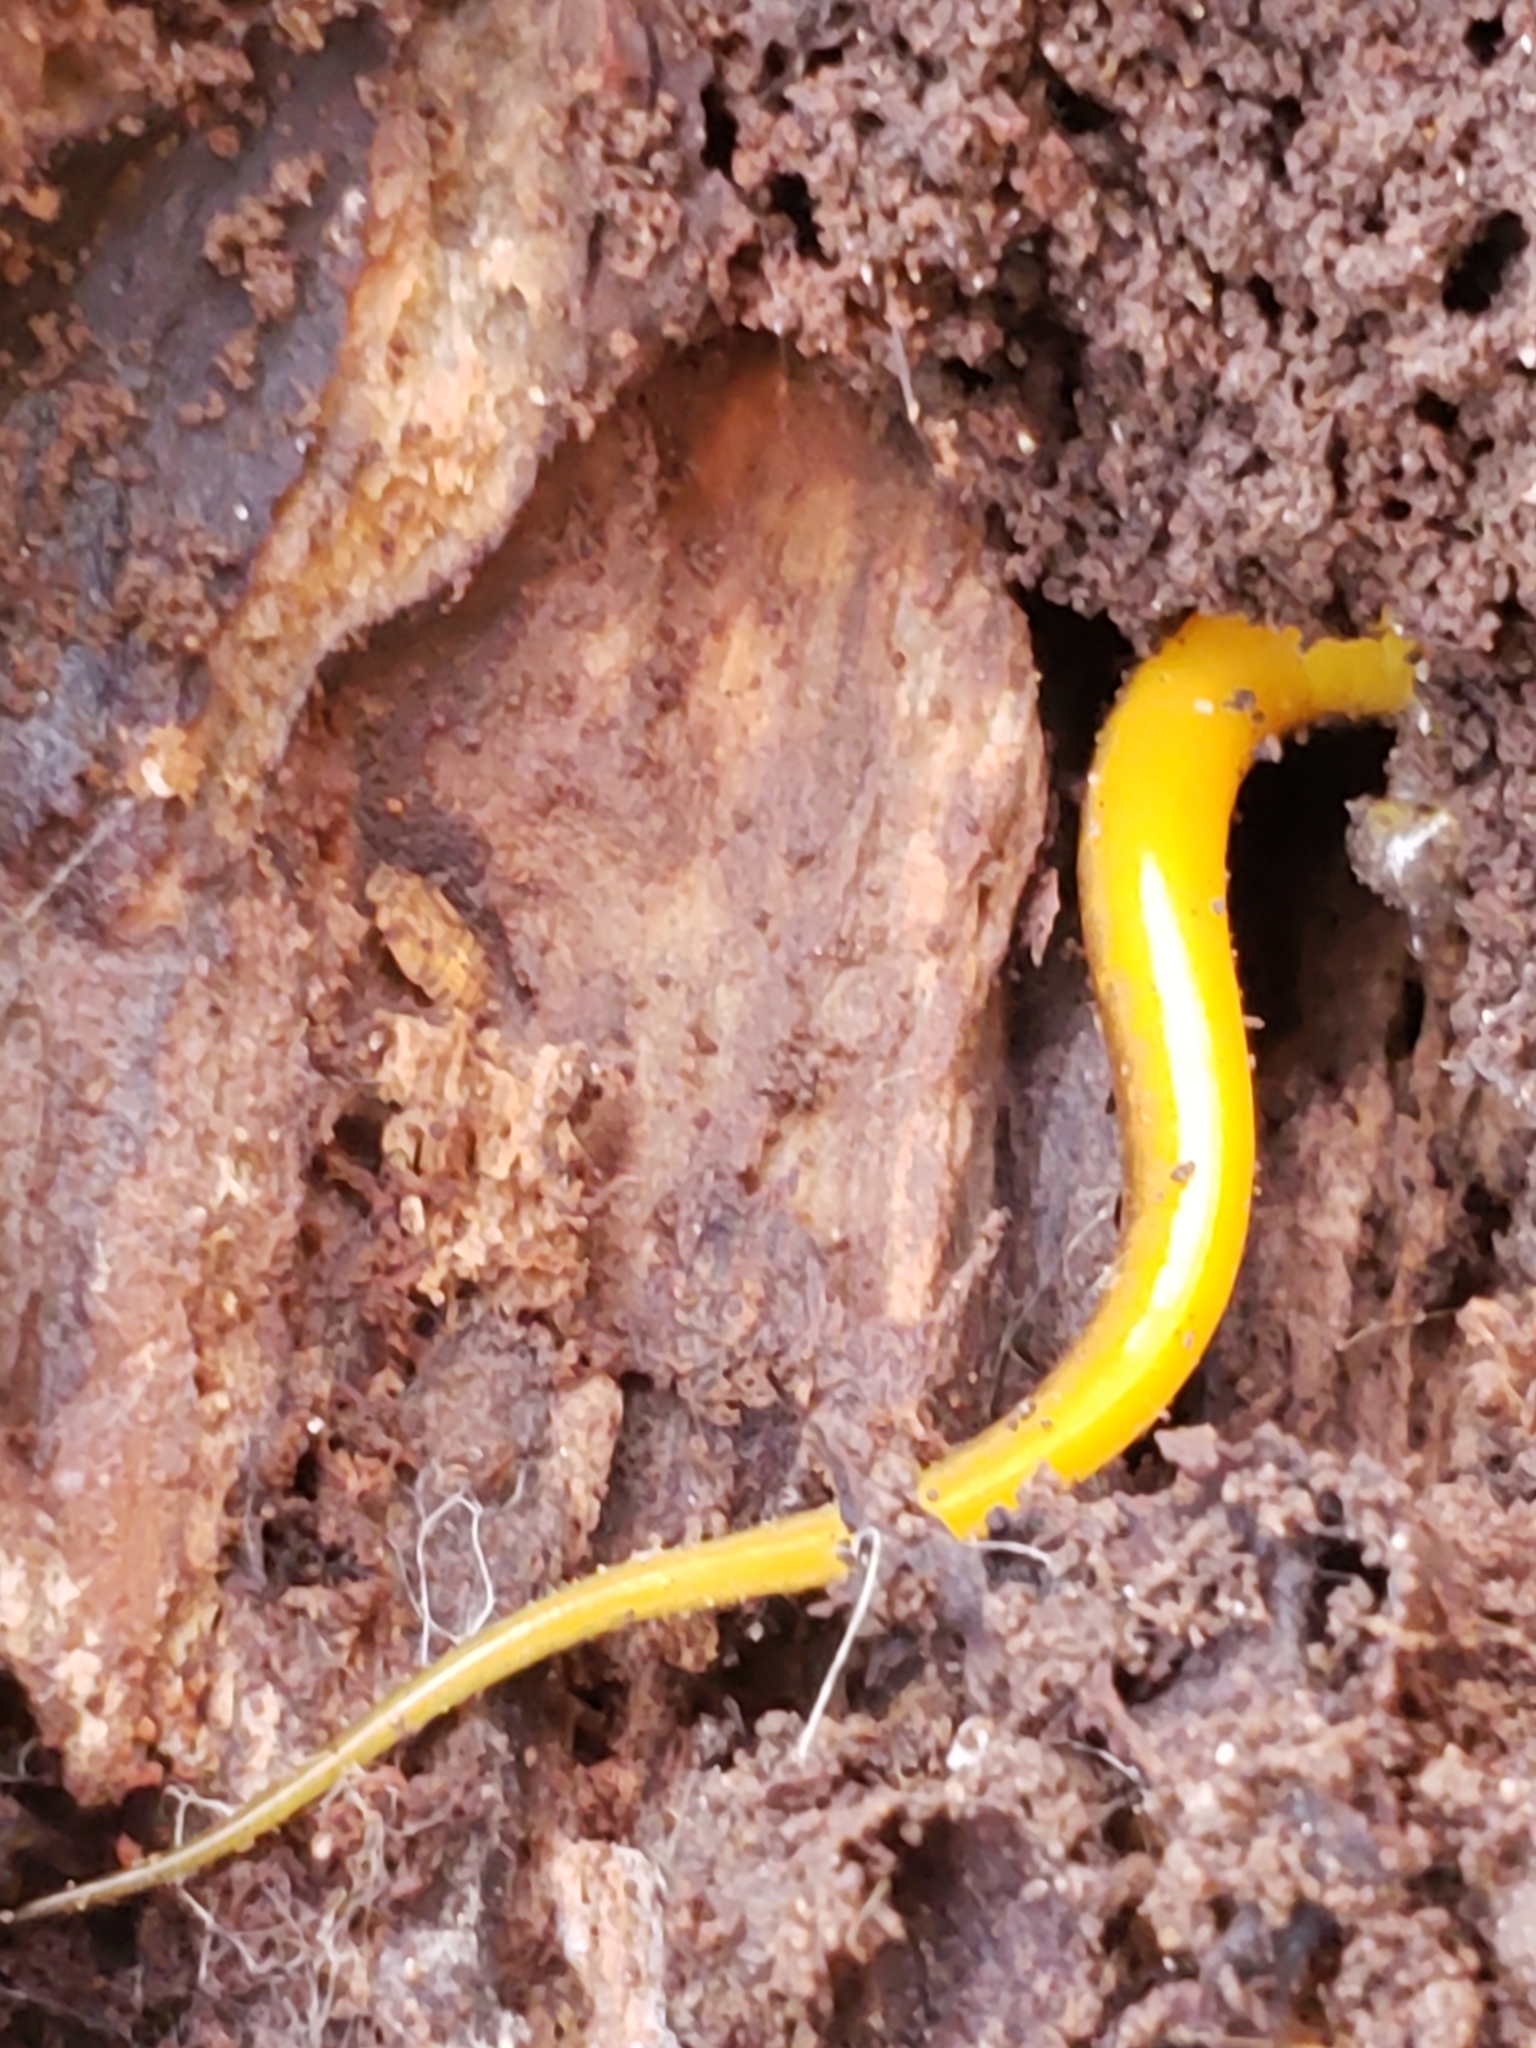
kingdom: Animalia
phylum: Chordata
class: Amphibia
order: Caudata
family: Plethodontidae
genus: Eurycea
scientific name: Eurycea bislineata
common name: Northern two-lined salamander
